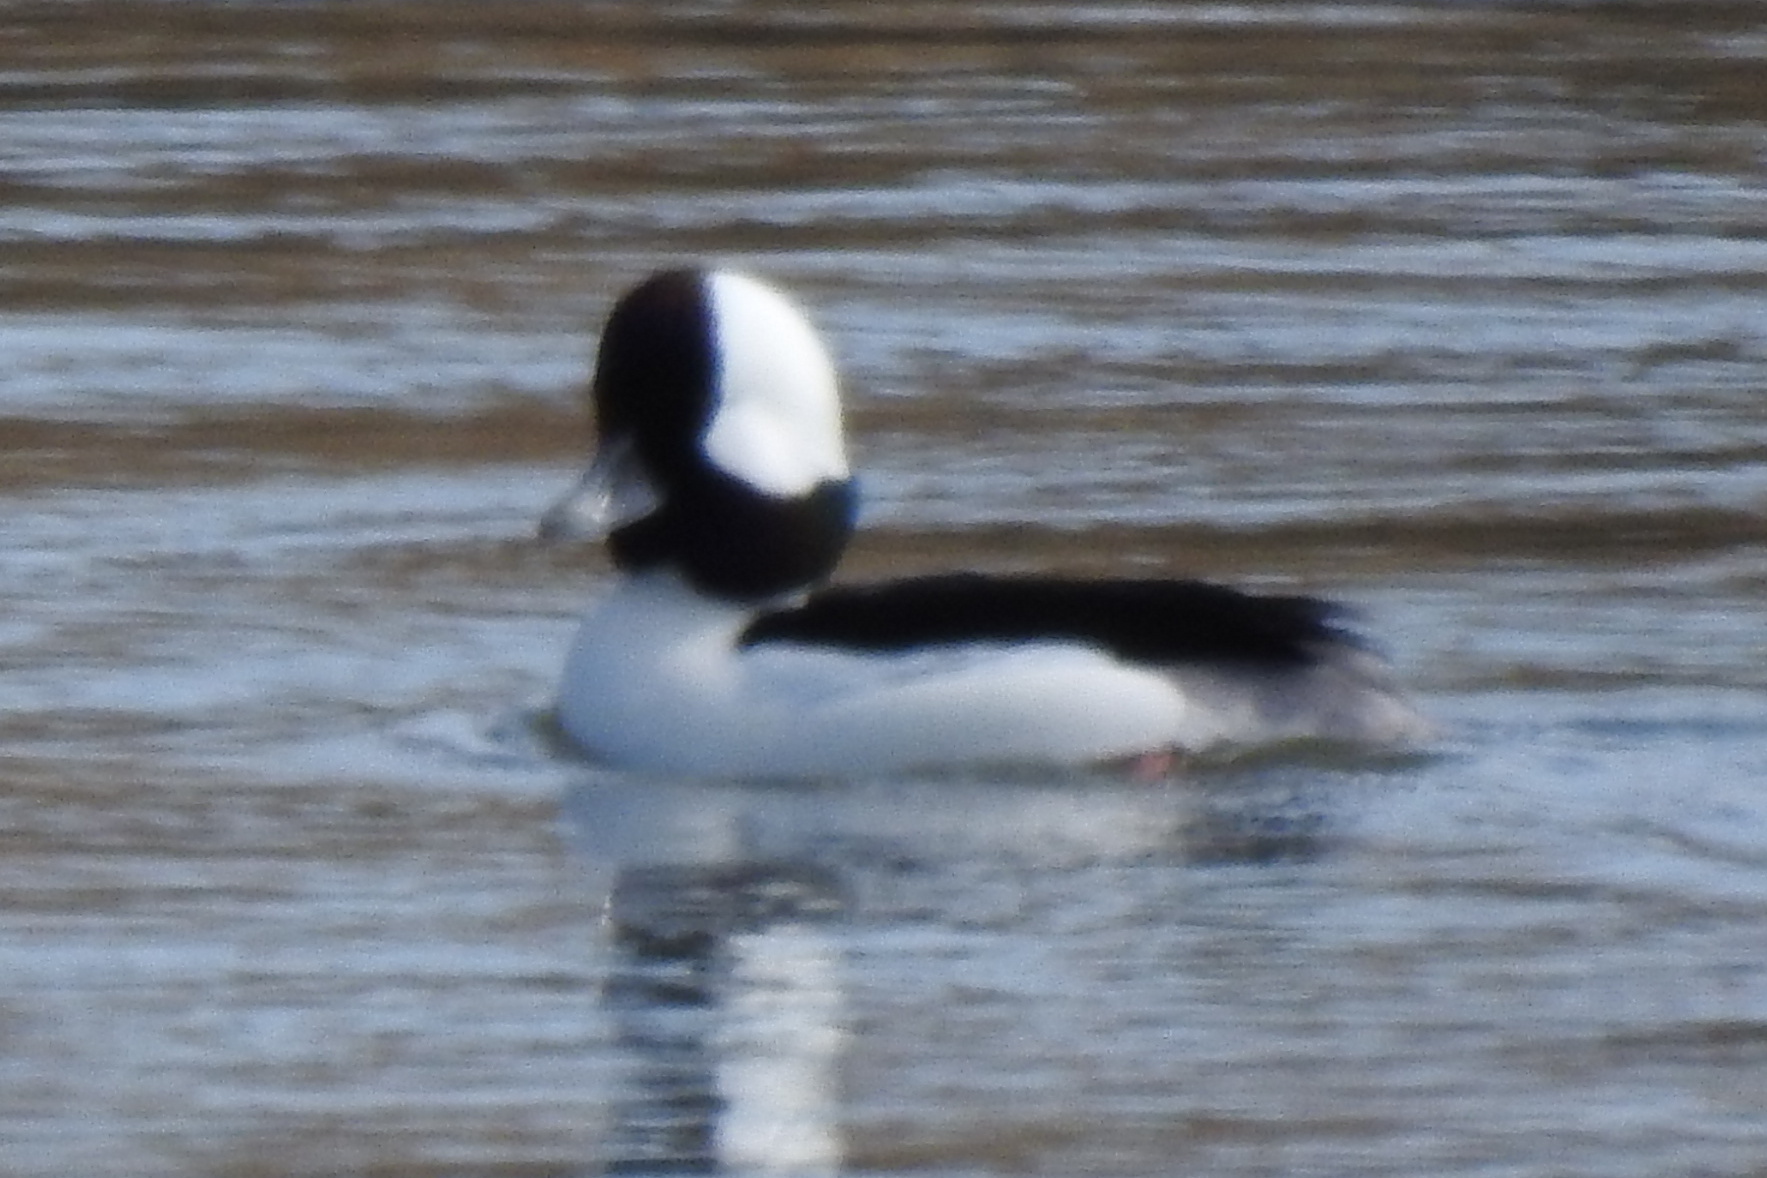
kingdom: Animalia
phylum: Chordata
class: Aves
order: Anseriformes
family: Anatidae
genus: Bucephala
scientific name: Bucephala albeola
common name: Bufflehead
